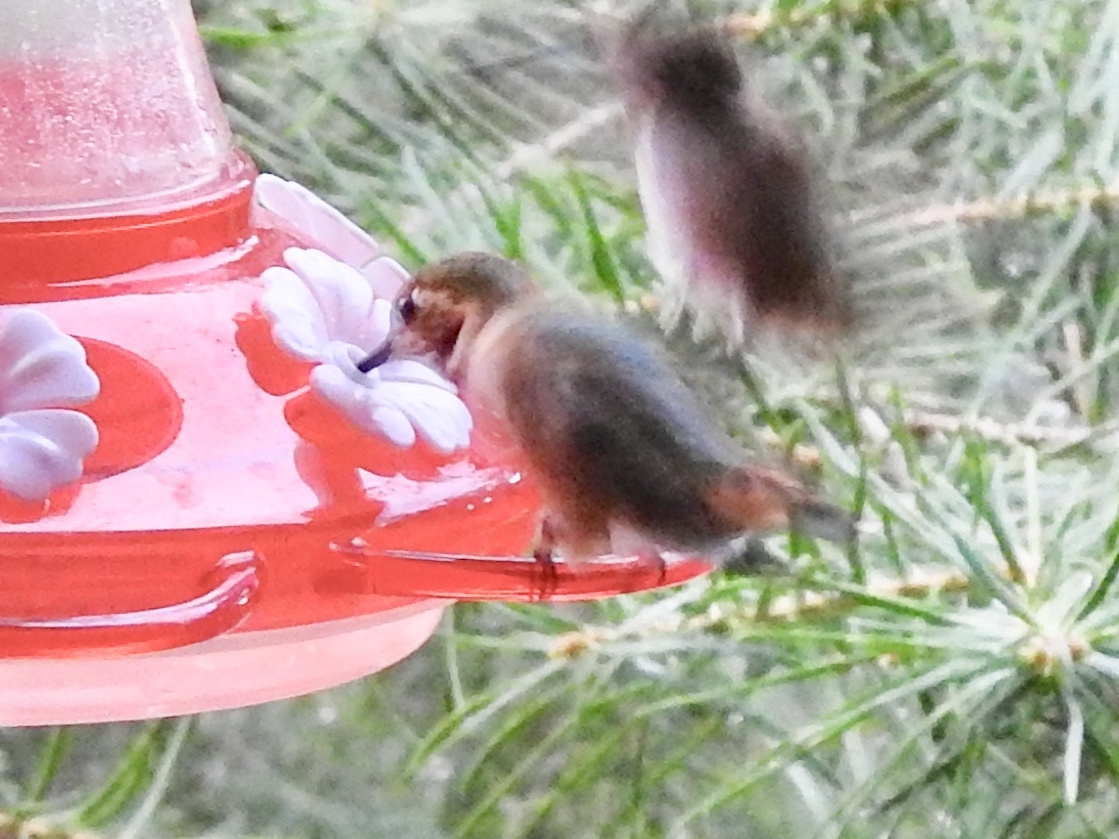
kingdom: Animalia
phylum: Chordata
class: Aves
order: Apodiformes
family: Trochilidae
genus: Selasphorus
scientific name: Selasphorus rufus
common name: Rufous hummingbird
